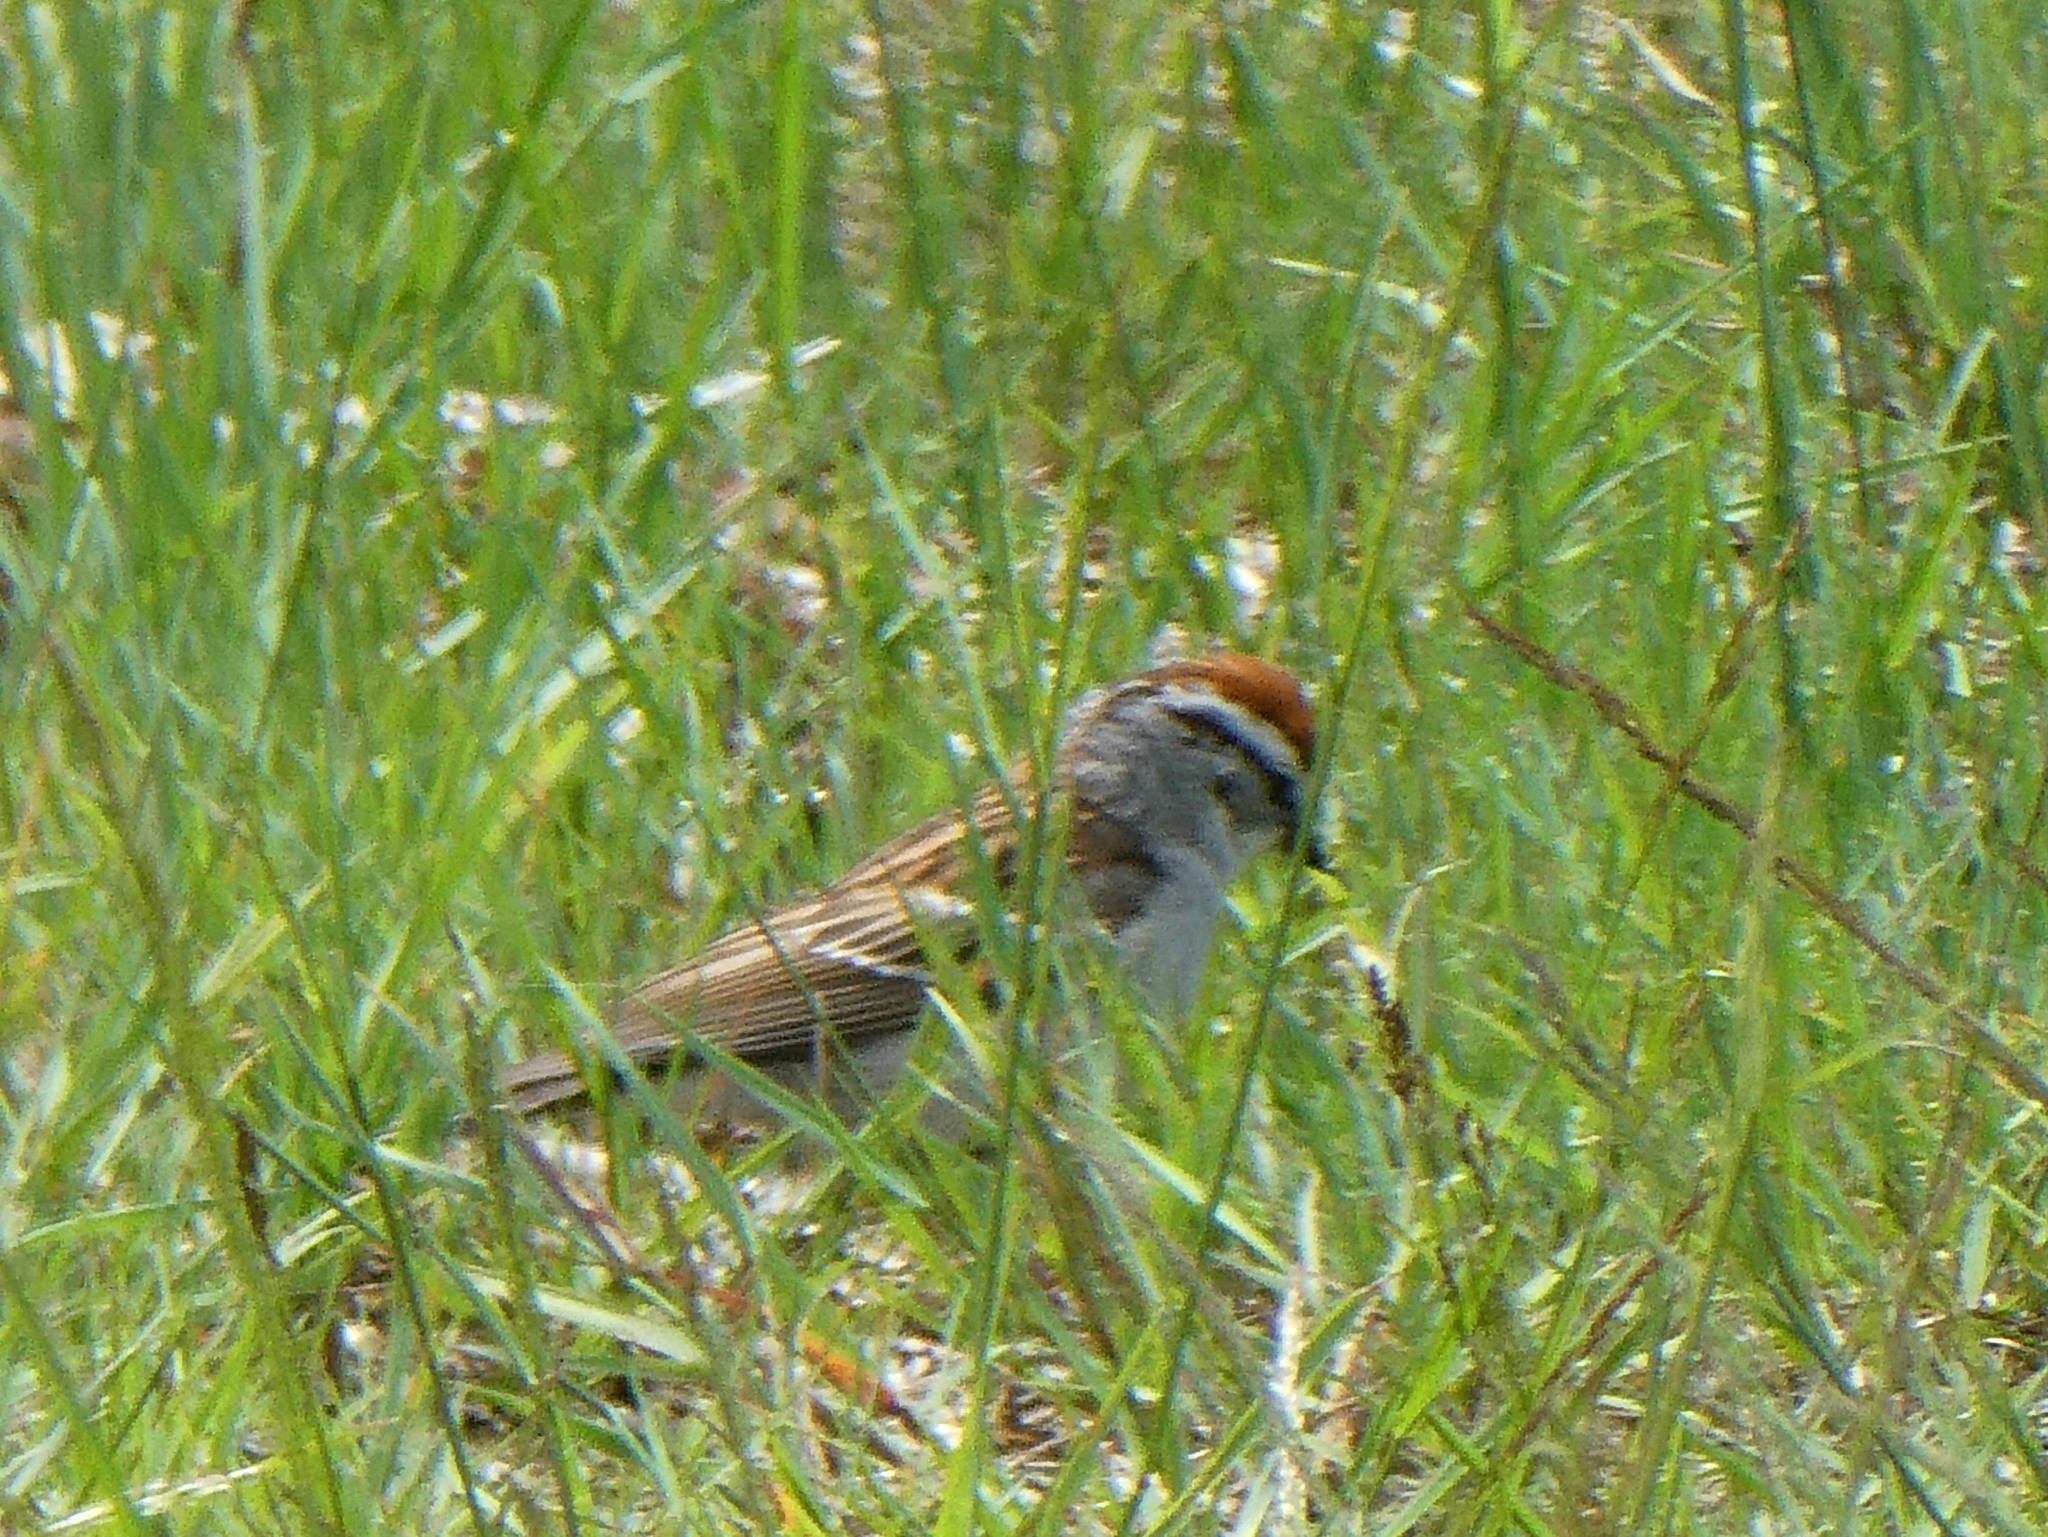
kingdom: Animalia
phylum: Chordata
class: Aves
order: Passeriformes
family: Passerellidae
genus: Spizella
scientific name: Spizella passerina
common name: Chipping sparrow
